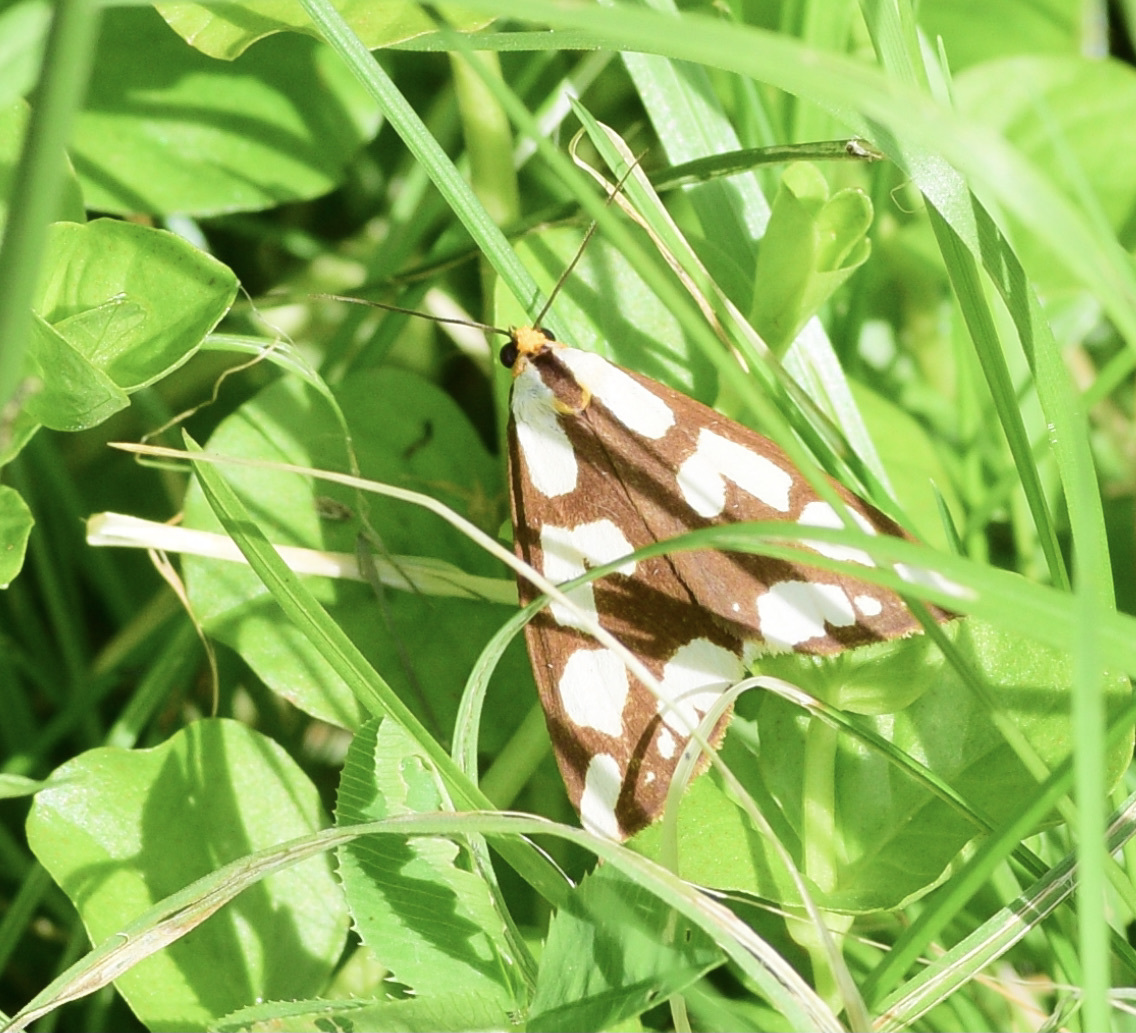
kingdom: Animalia
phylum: Arthropoda
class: Insecta
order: Lepidoptera
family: Erebidae
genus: Haploa
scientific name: Haploa confusa
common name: Confused haploa moth
